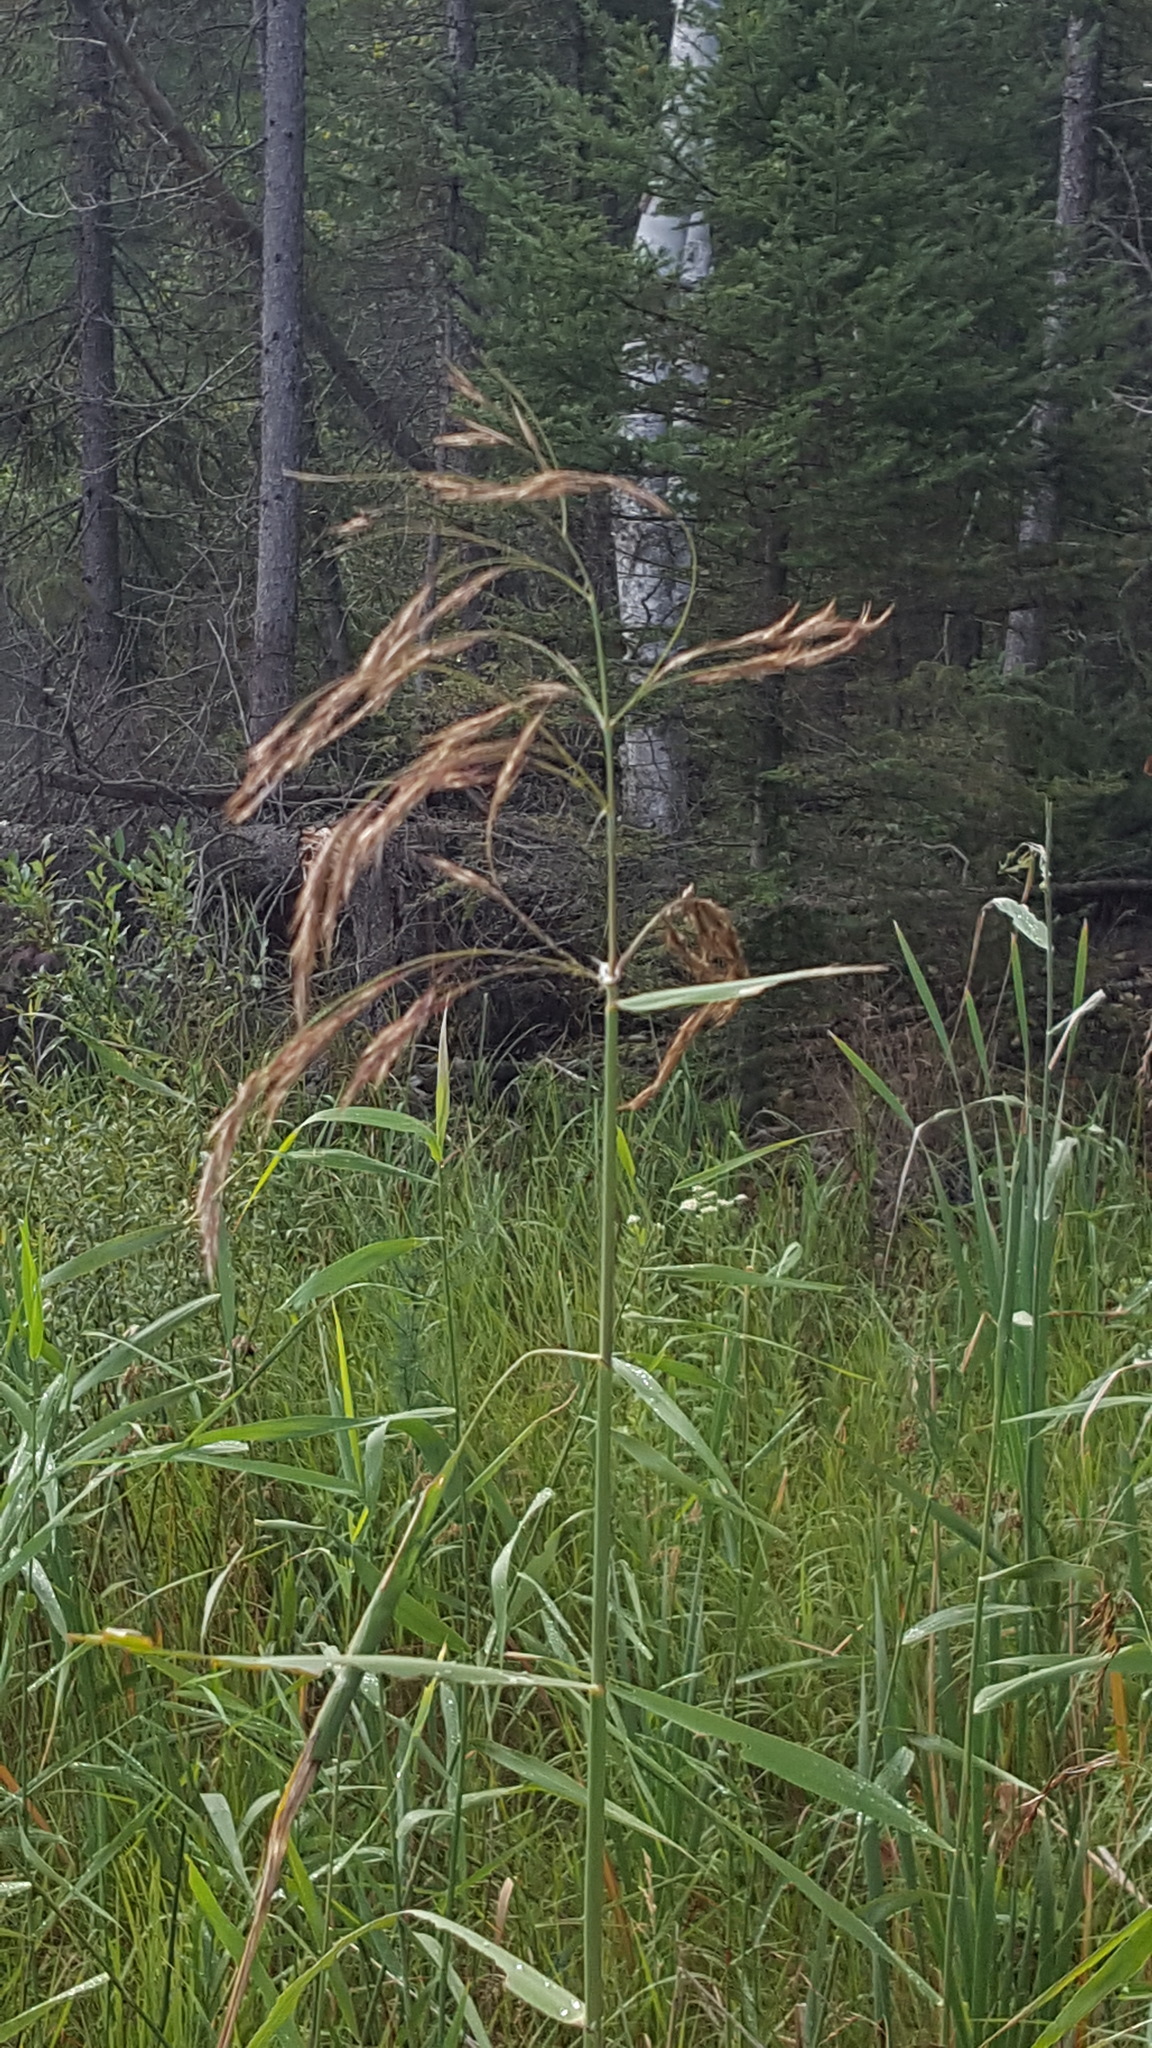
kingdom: Plantae
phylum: Tracheophyta
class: Liliopsida
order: Poales
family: Poaceae
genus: Phragmites
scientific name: Phragmites australis
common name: Common reed
